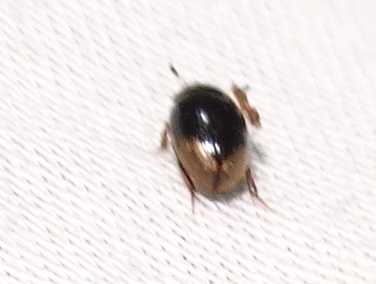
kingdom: Animalia
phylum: Arthropoda
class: Insecta
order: Coleoptera
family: Hydrophilidae
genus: Cercyon
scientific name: Cercyon praetextatus
